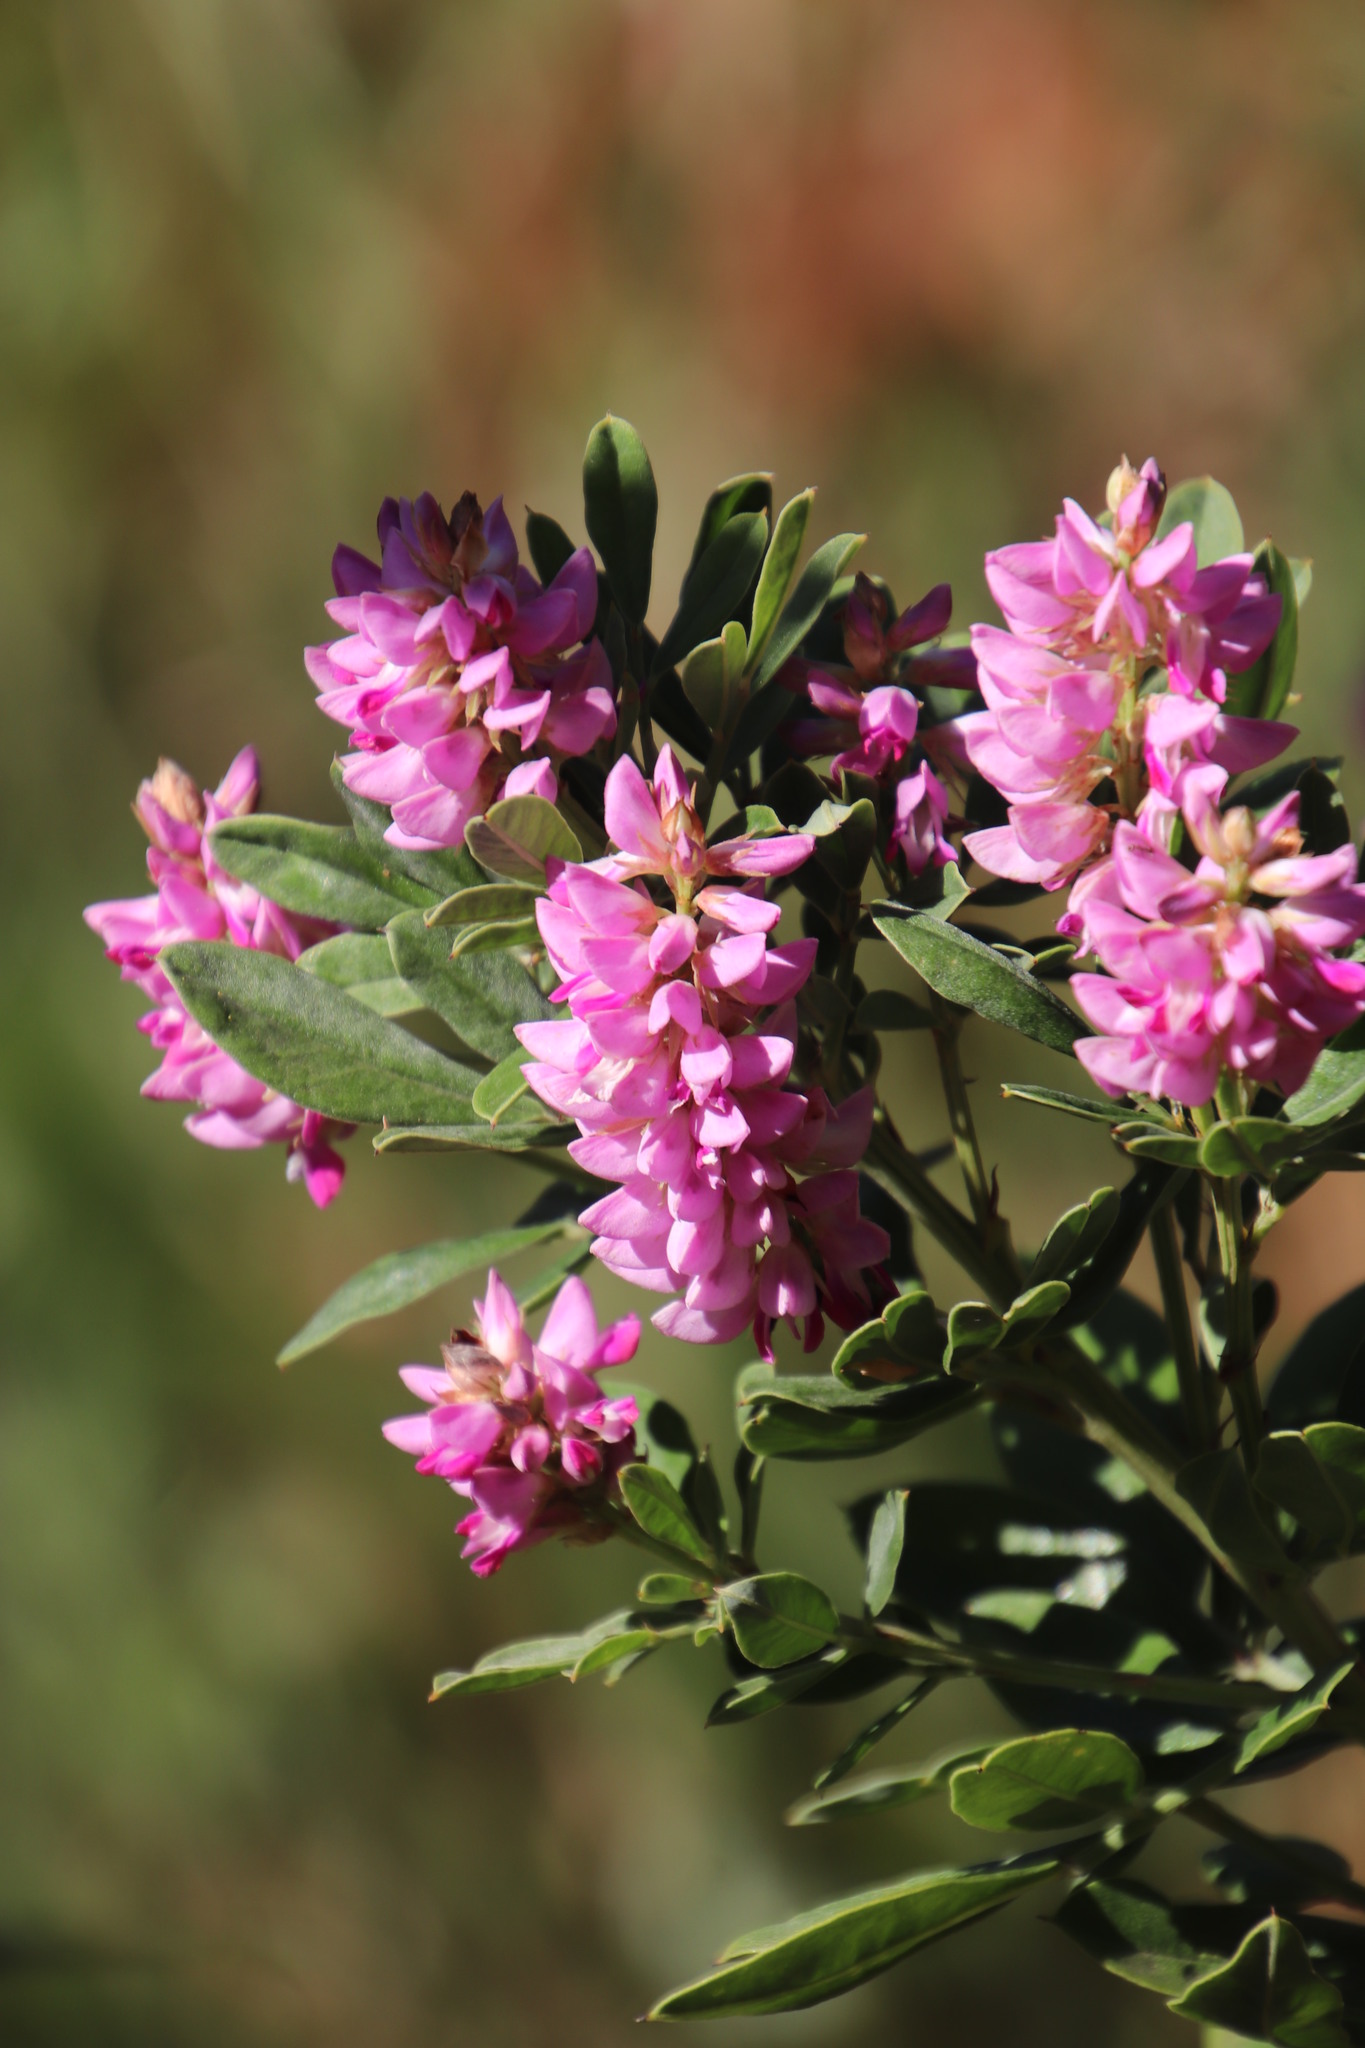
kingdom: Plantae
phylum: Tracheophyta
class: Magnoliopsida
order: Fabales
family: Fabaceae
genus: Indigofera
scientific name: Indigofera cytisoides
